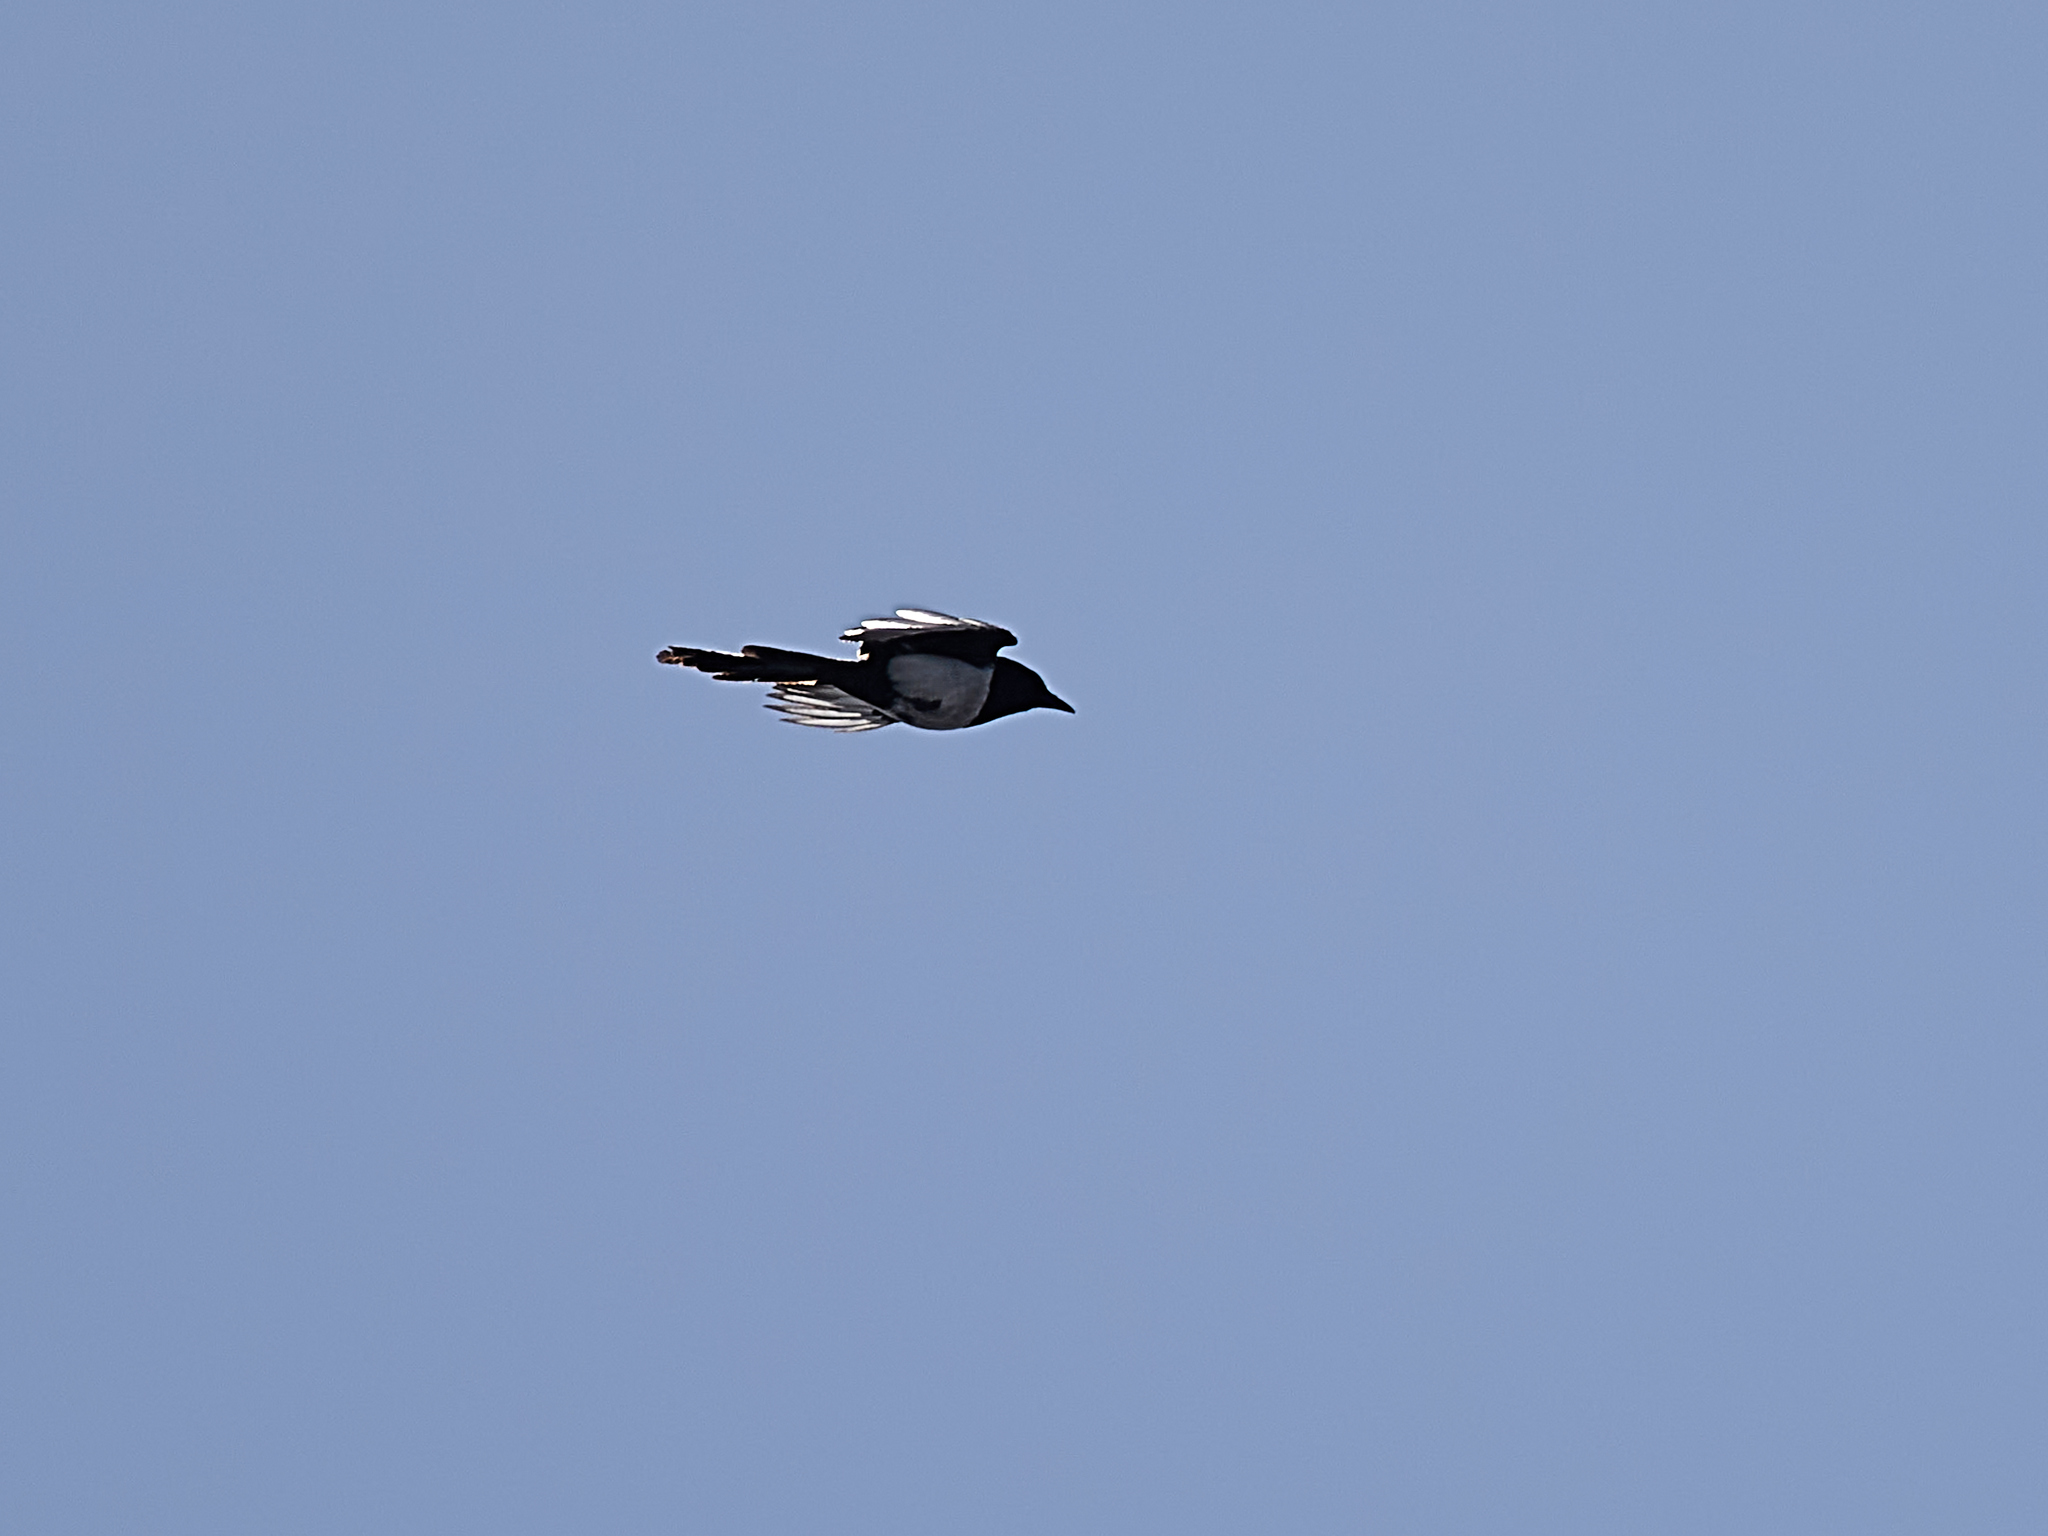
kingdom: Animalia
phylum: Chordata
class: Aves
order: Passeriformes
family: Corvidae
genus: Pica
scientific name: Pica pica
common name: Eurasian magpie
